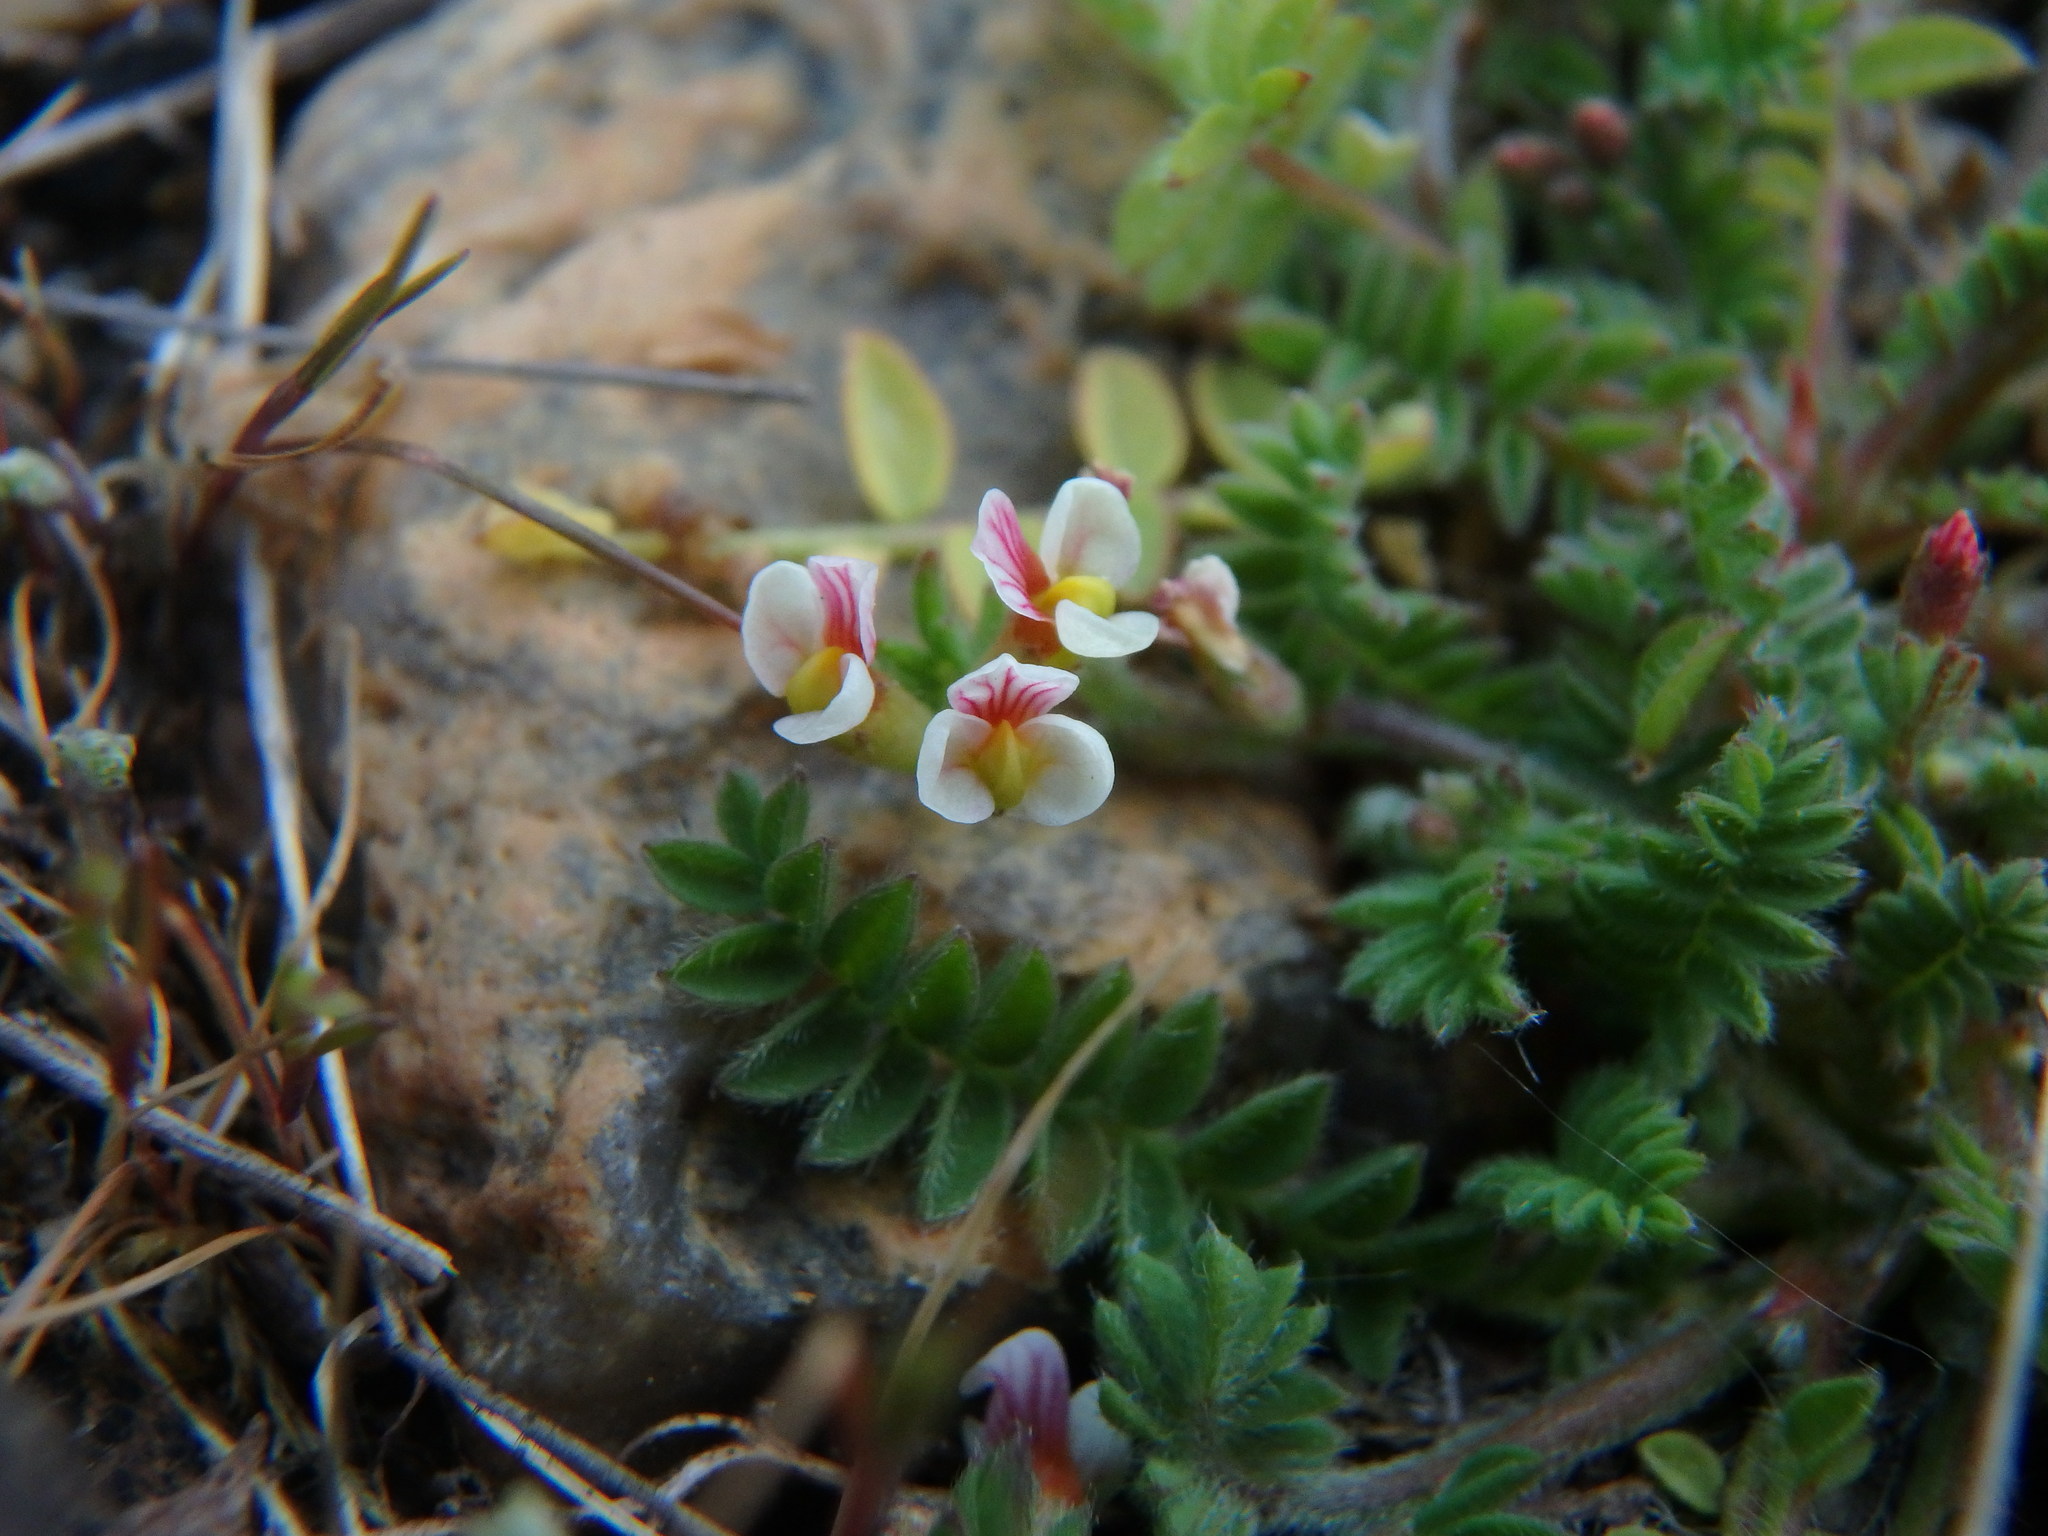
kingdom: Plantae
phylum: Tracheophyta
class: Magnoliopsida
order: Fabales
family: Fabaceae
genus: Ornithopus
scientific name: Ornithopus perpusillus
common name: Bird's-foot
